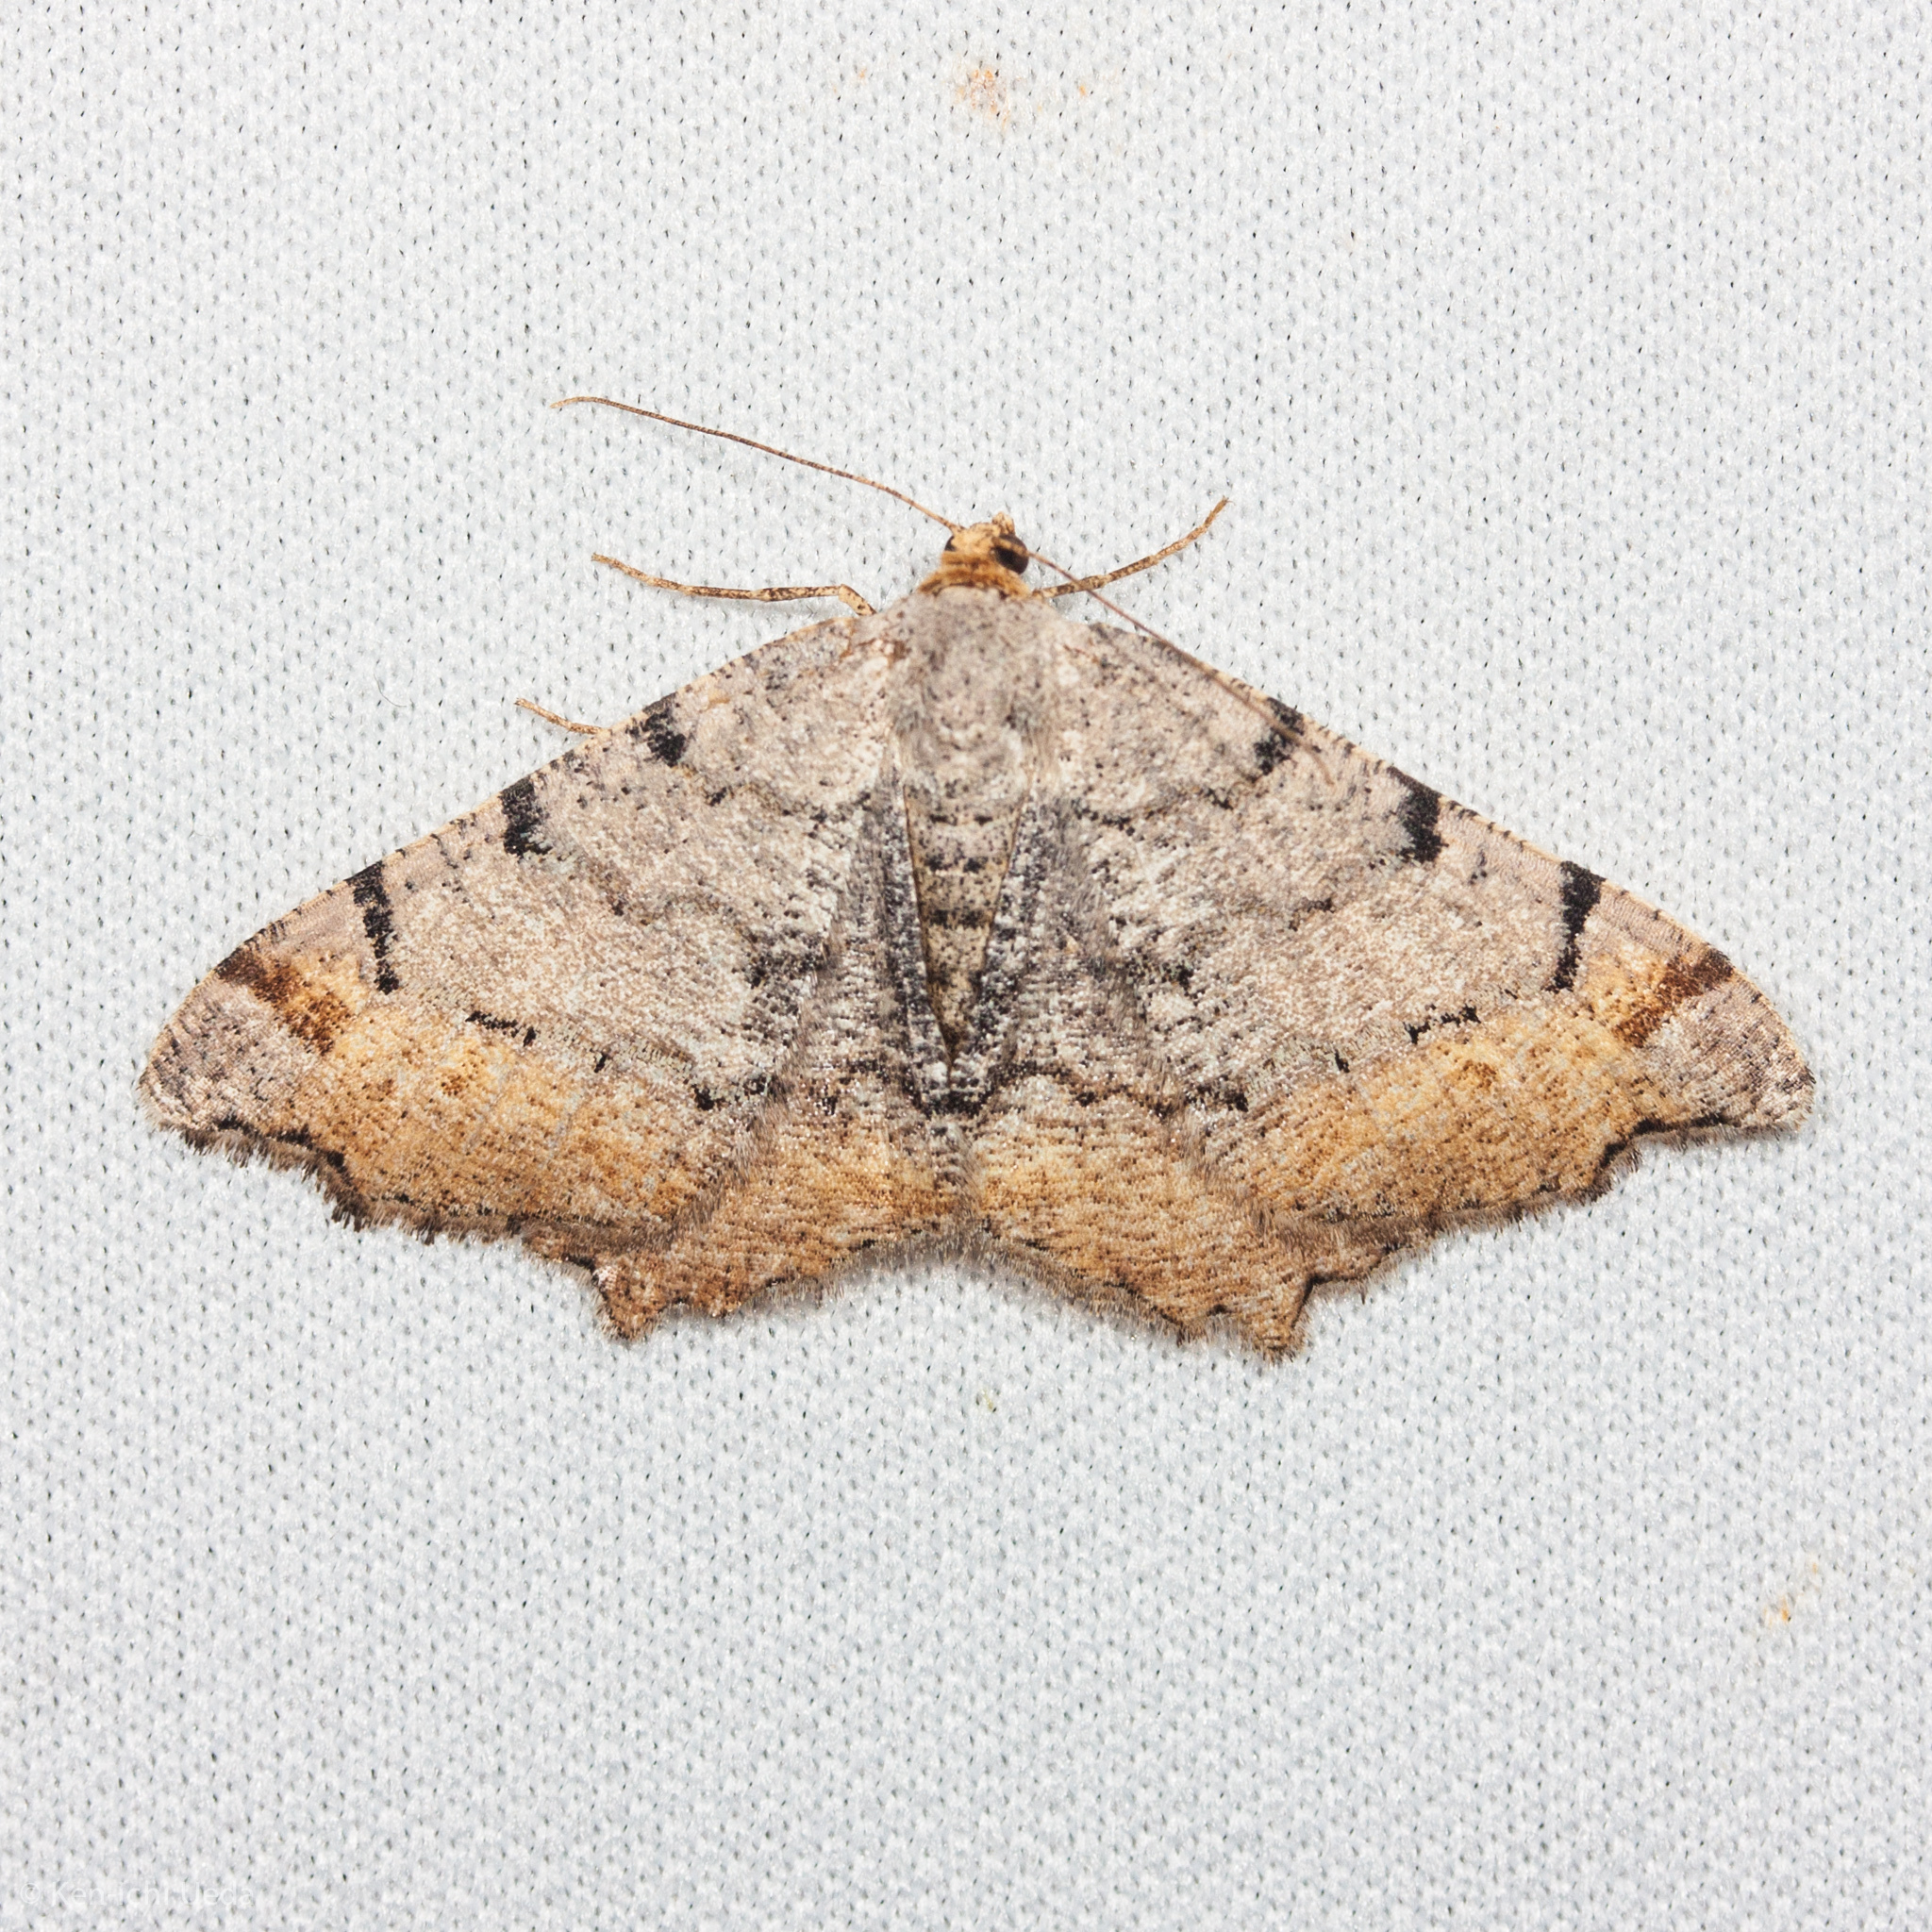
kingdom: Animalia
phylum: Arthropoda
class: Insecta
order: Lepidoptera
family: Geometridae
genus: Macaria
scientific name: Macaria adonis
